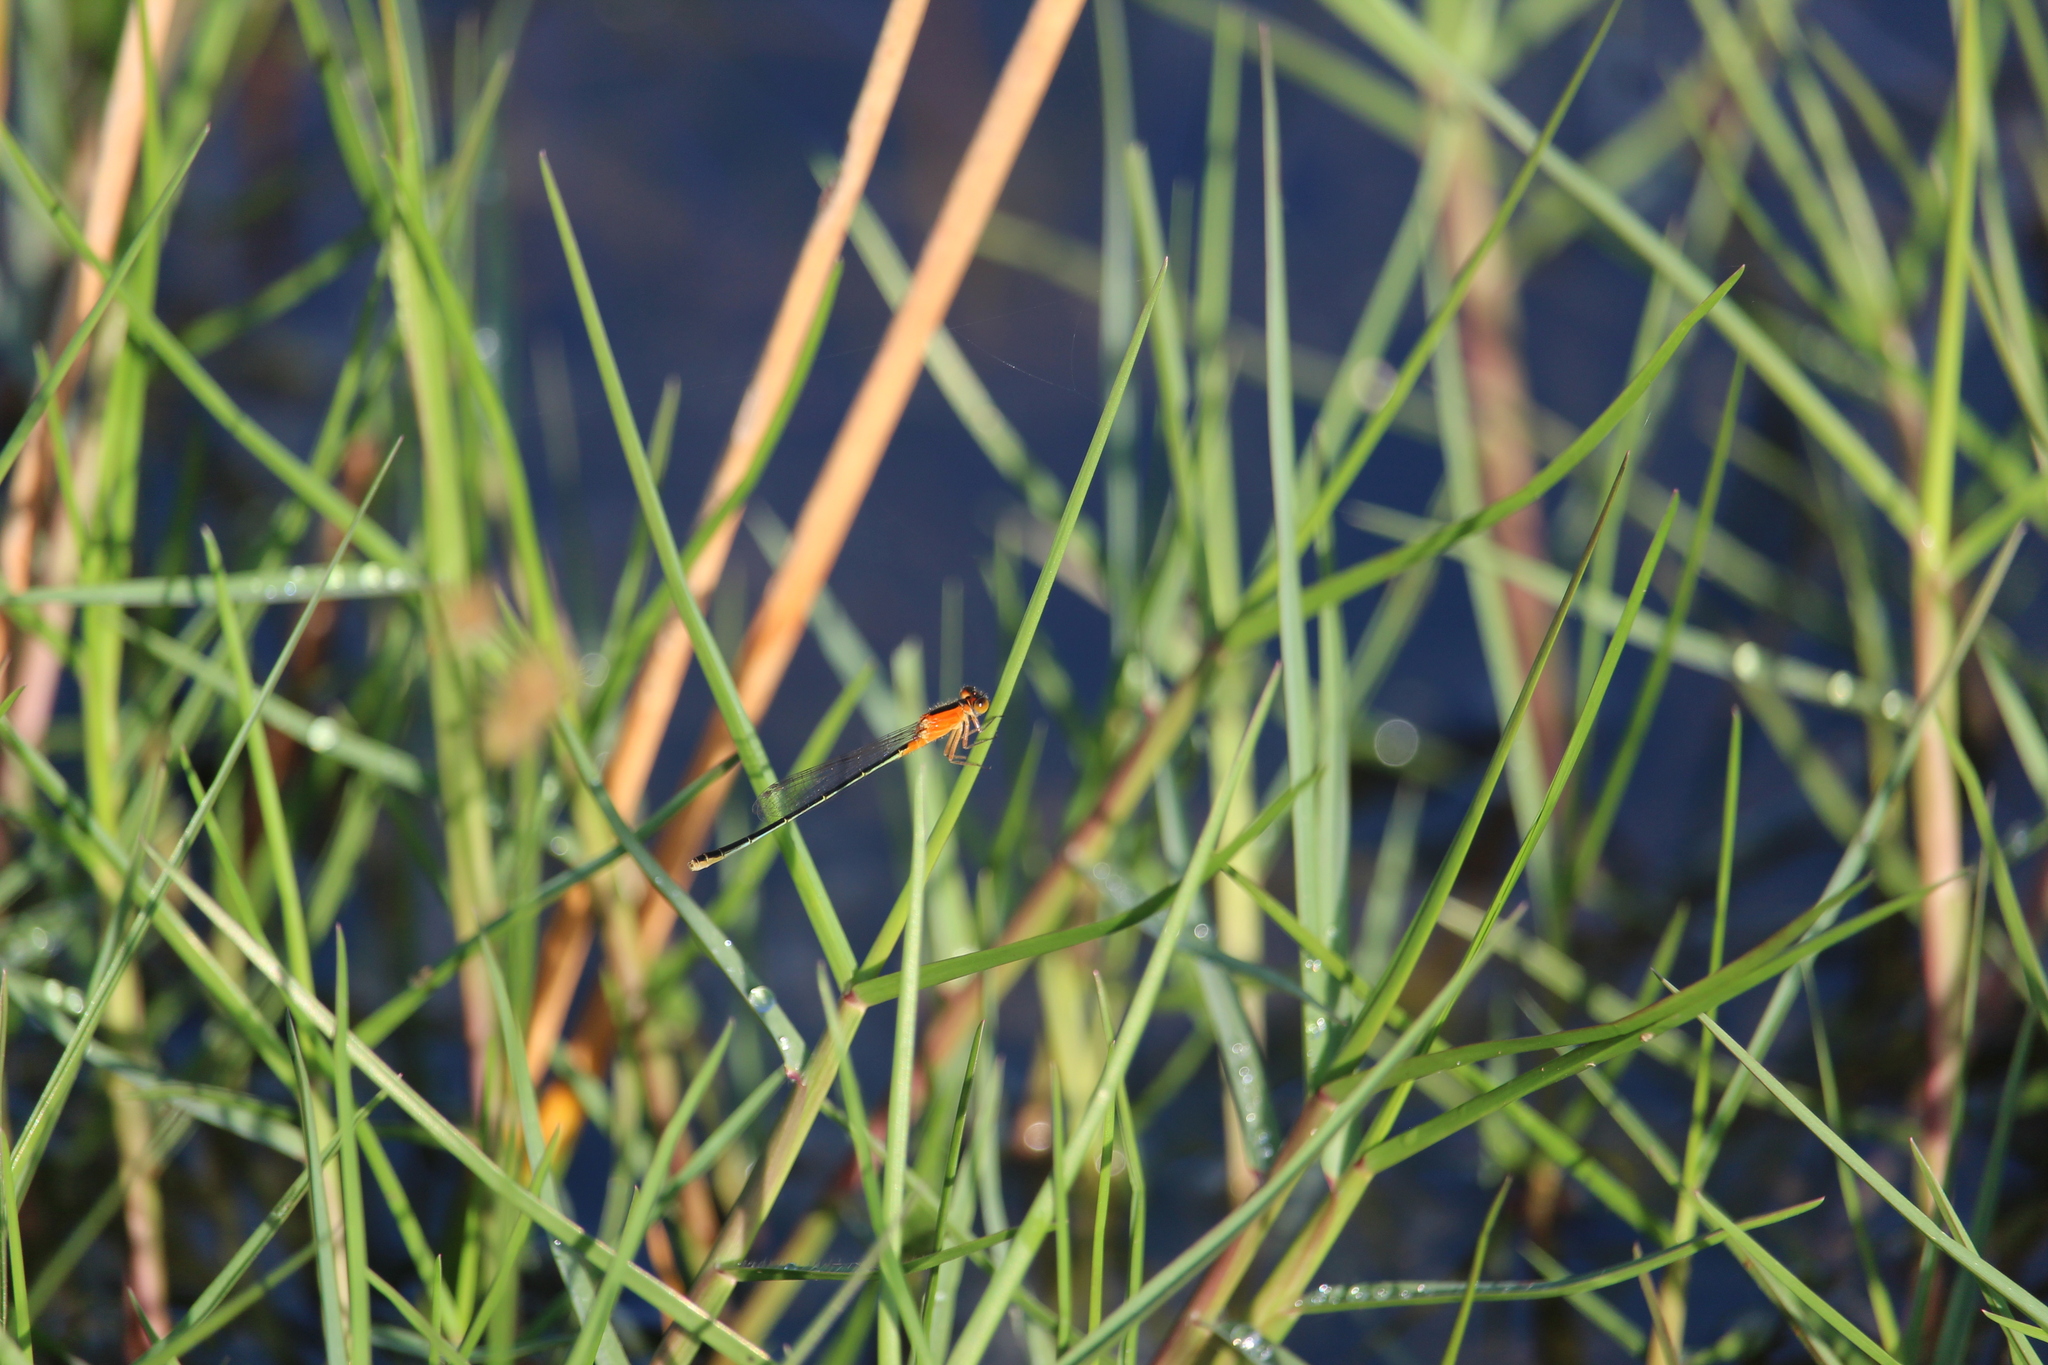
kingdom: Animalia
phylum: Arthropoda
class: Insecta
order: Odonata
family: Coenagrionidae
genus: Ischnura
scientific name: Ischnura ramburii
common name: Rambur's forktail
